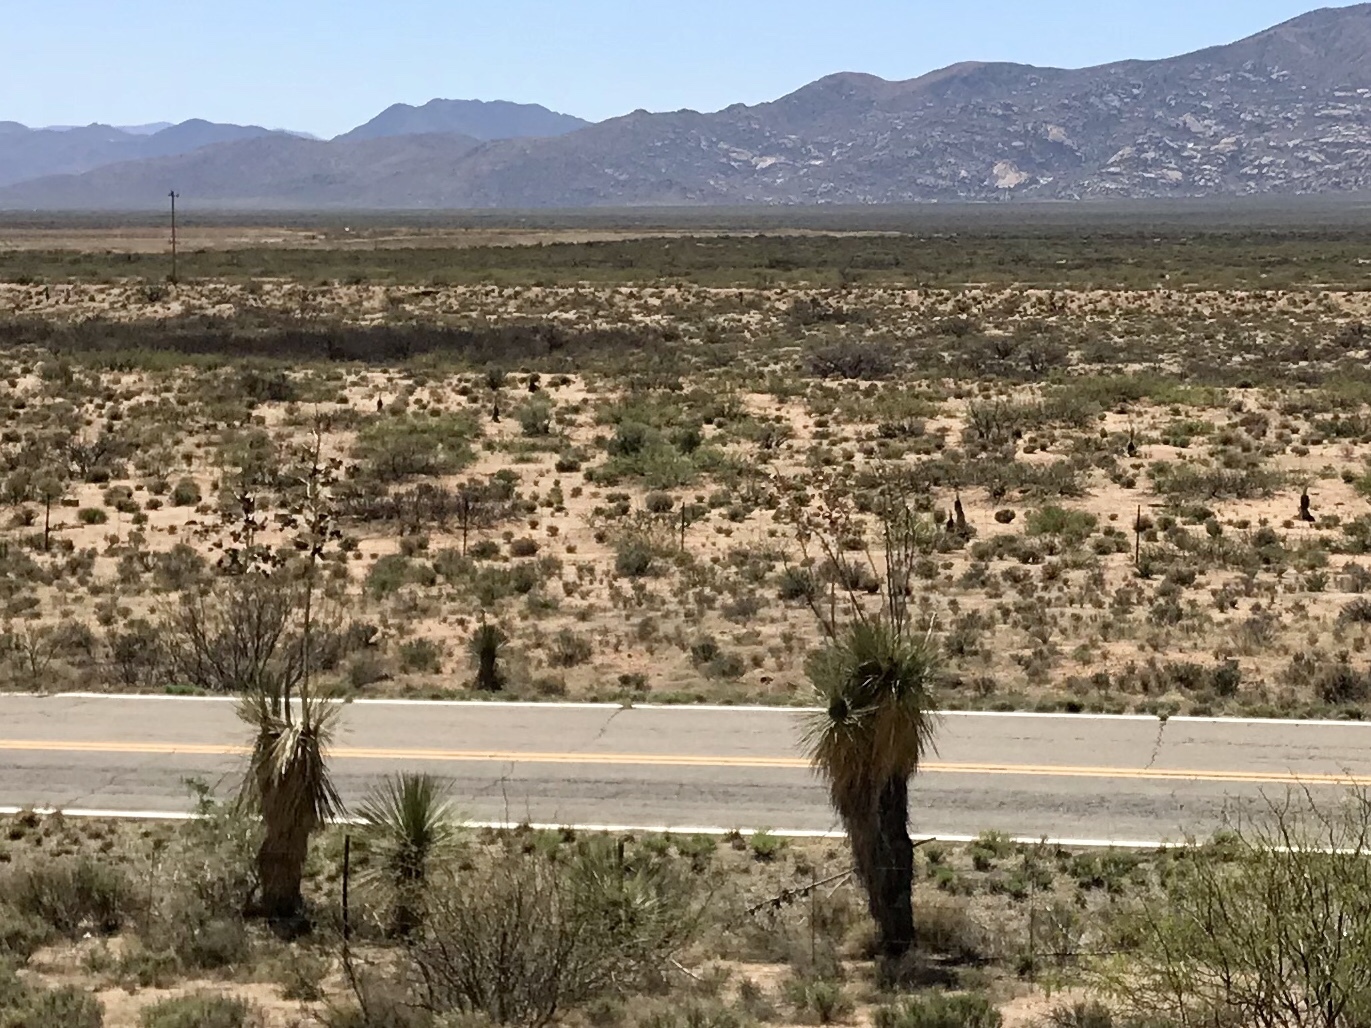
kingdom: Plantae
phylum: Tracheophyta
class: Liliopsida
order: Asparagales
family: Asparagaceae
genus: Yucca
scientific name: Yucca elata
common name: Palmella
